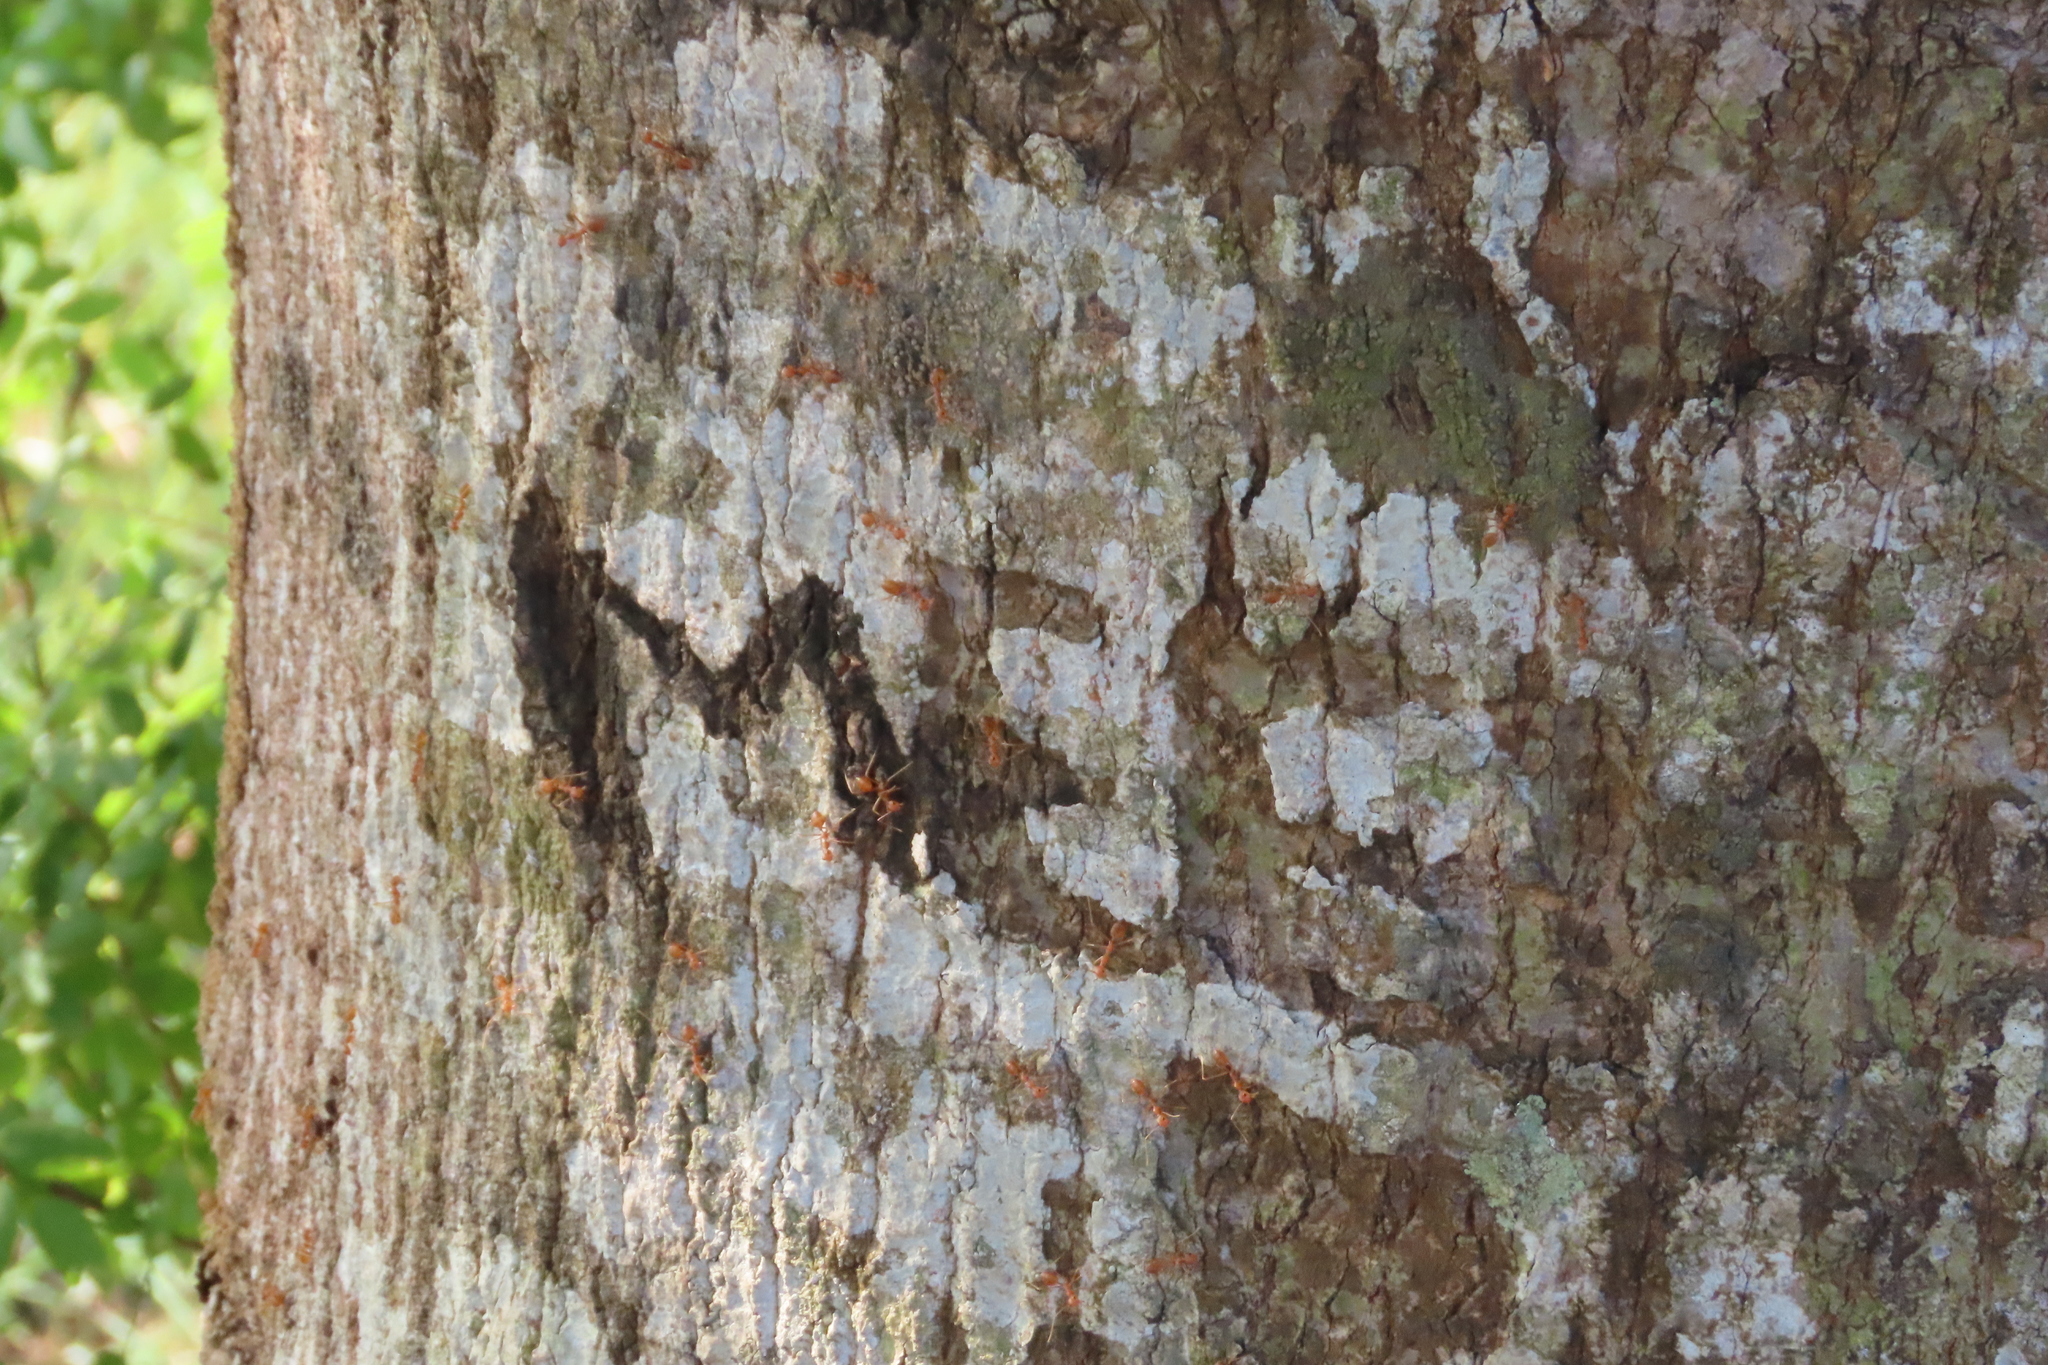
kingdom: Animalia
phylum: Arthropoda
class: Insecta
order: Hymenoptera
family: Formicidae
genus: Oecophylla
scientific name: Oecophylla smaragdina
